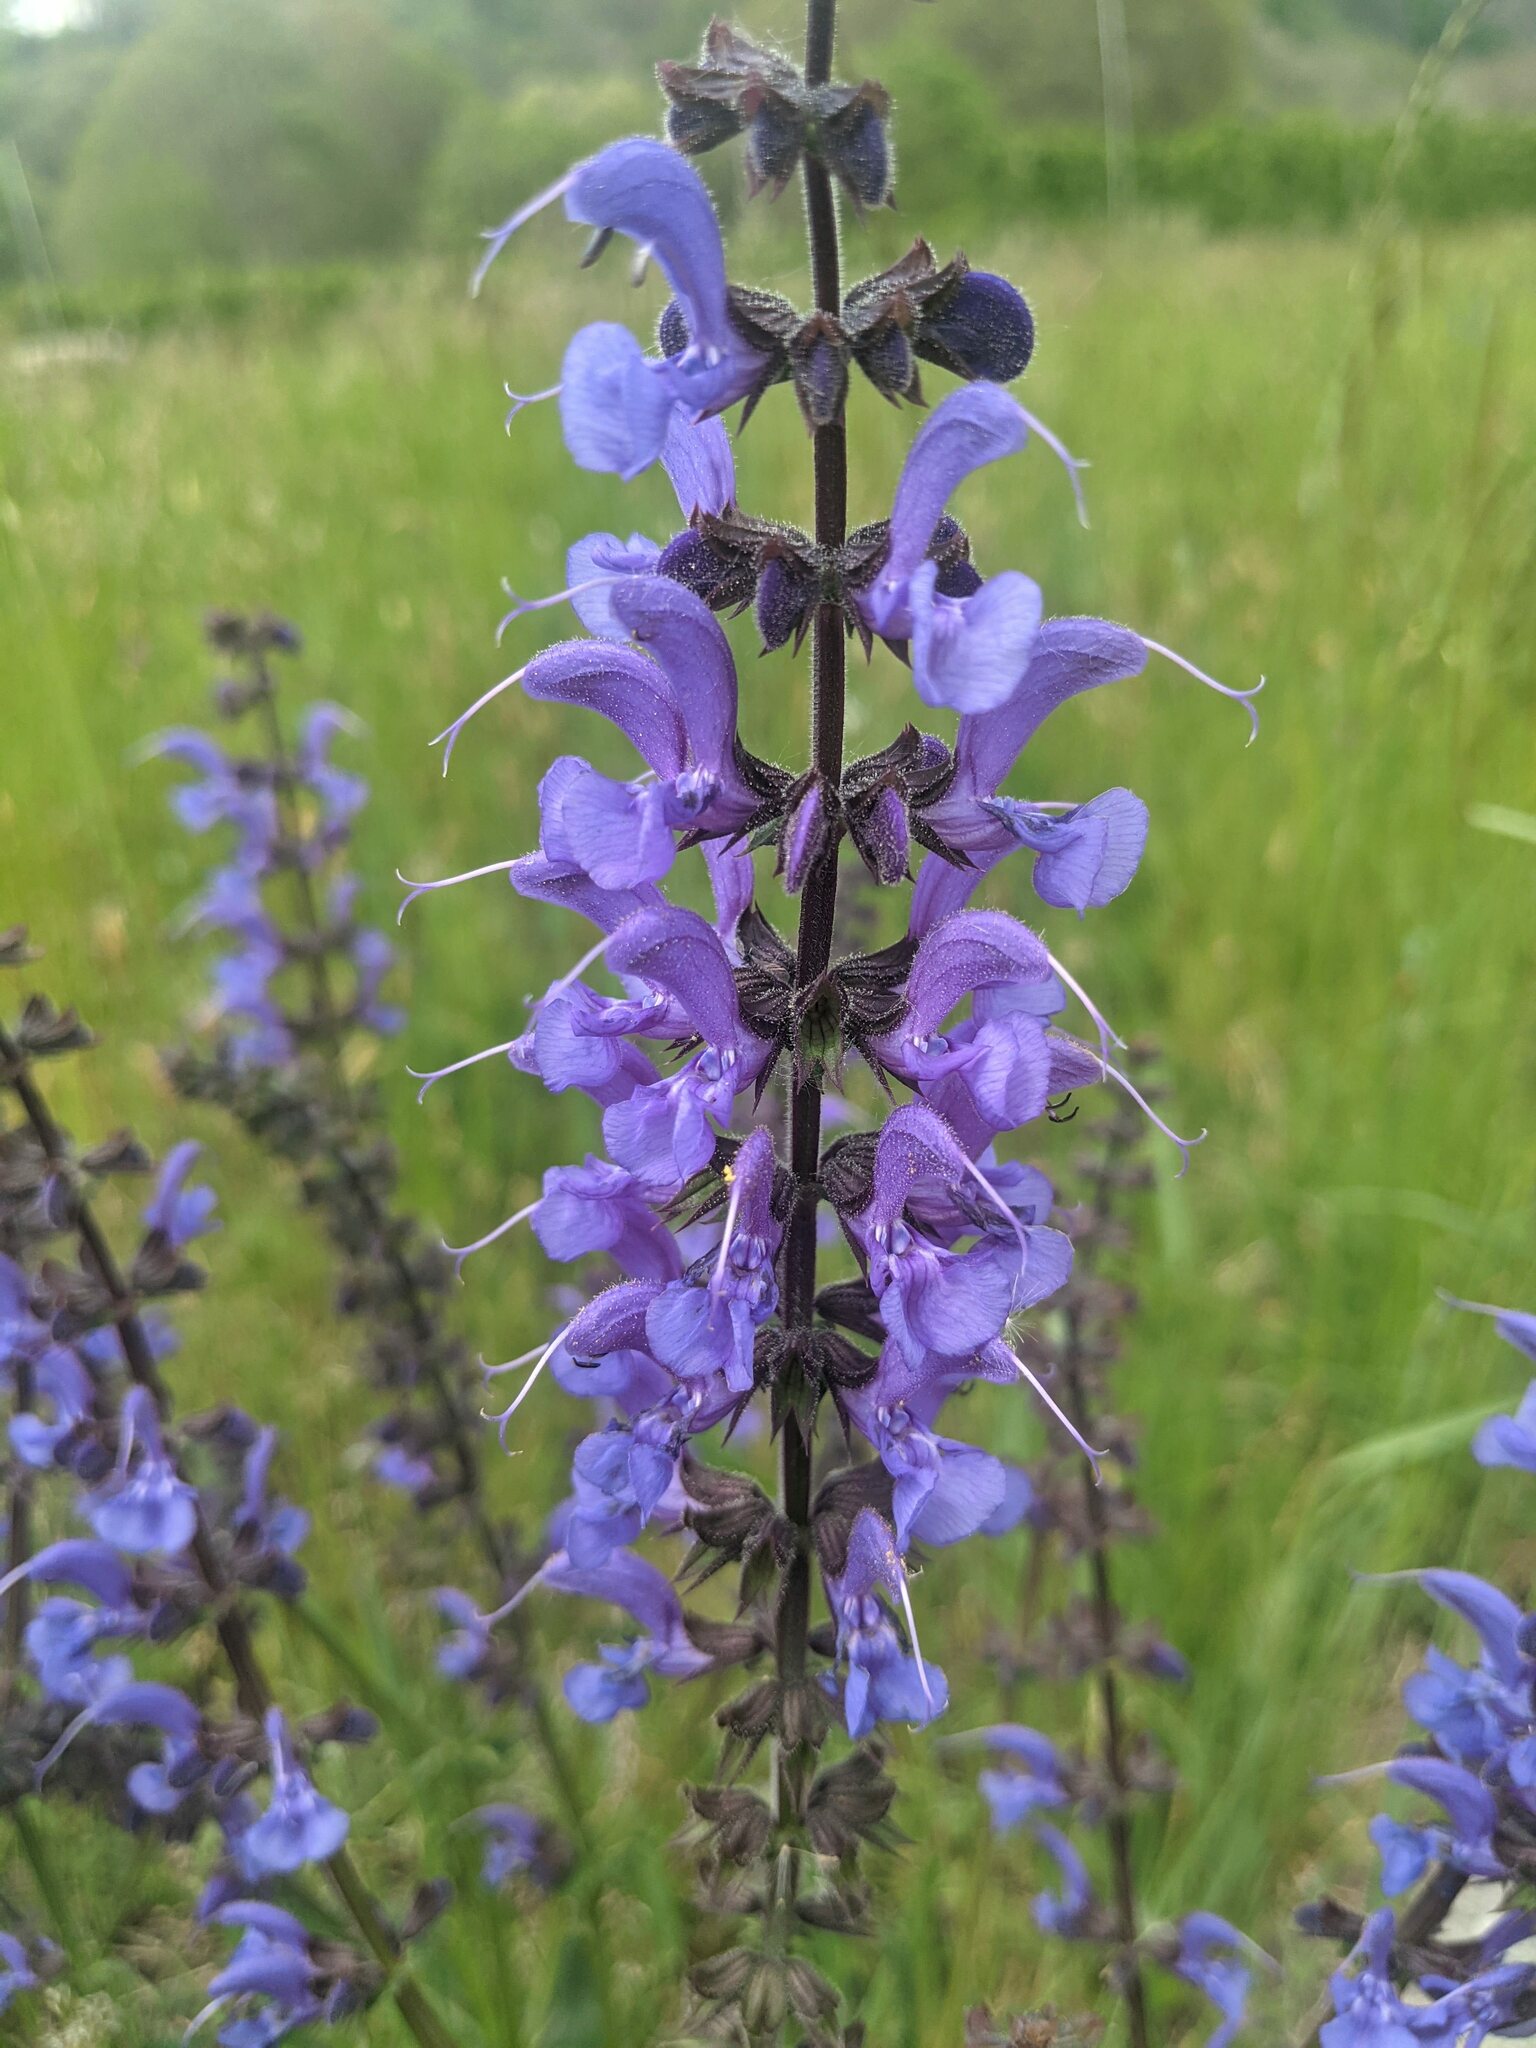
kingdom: Plantae
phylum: Tracheophyta
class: Magnoliopsida
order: Lamiales
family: Lamiaceae
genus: Salvia
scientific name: Salvia pratensis
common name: Meadow sage
